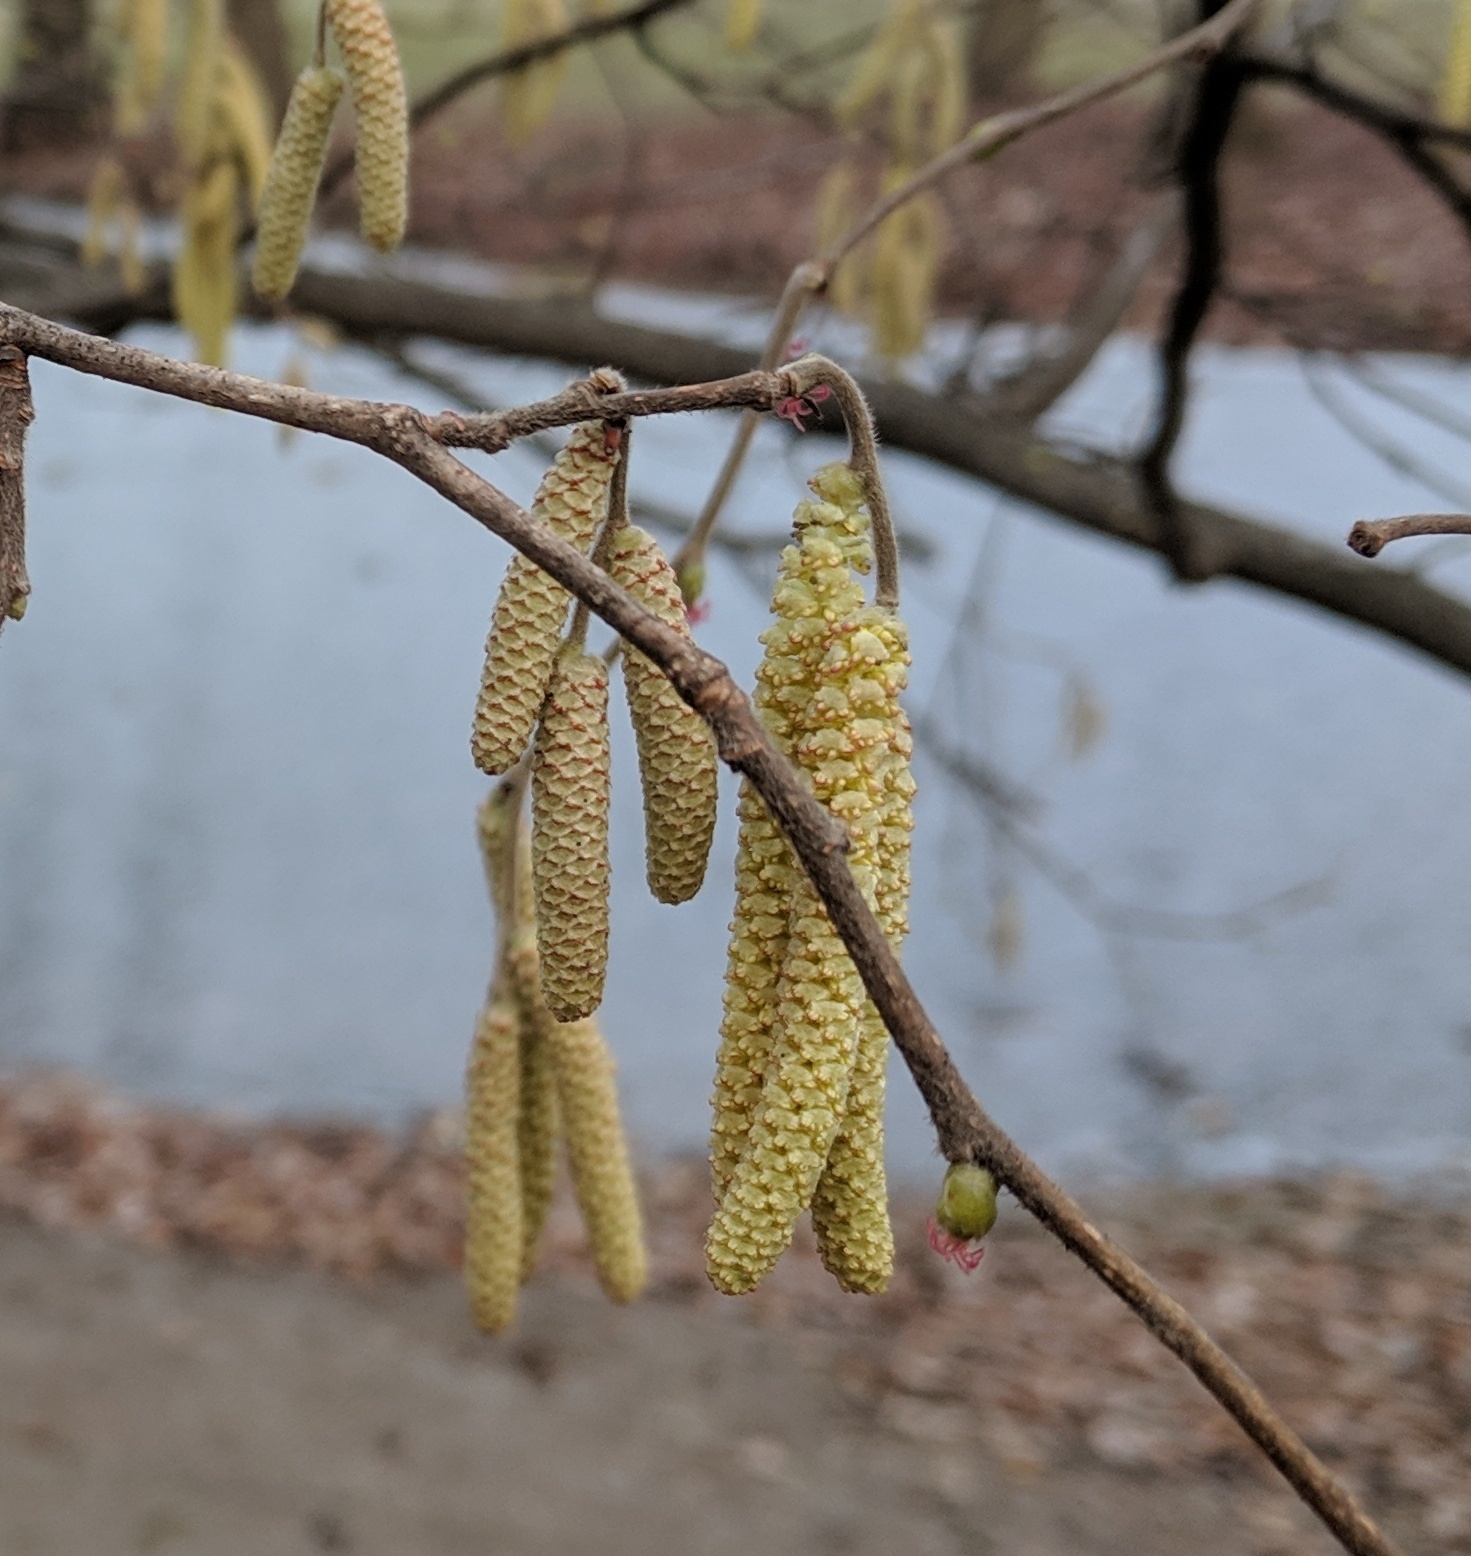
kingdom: Plantae
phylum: Tracheophyta
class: Magnoliopsida
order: Fagales
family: Betulaceae
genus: Corylus
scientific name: Corylus avellana
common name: European hazel
